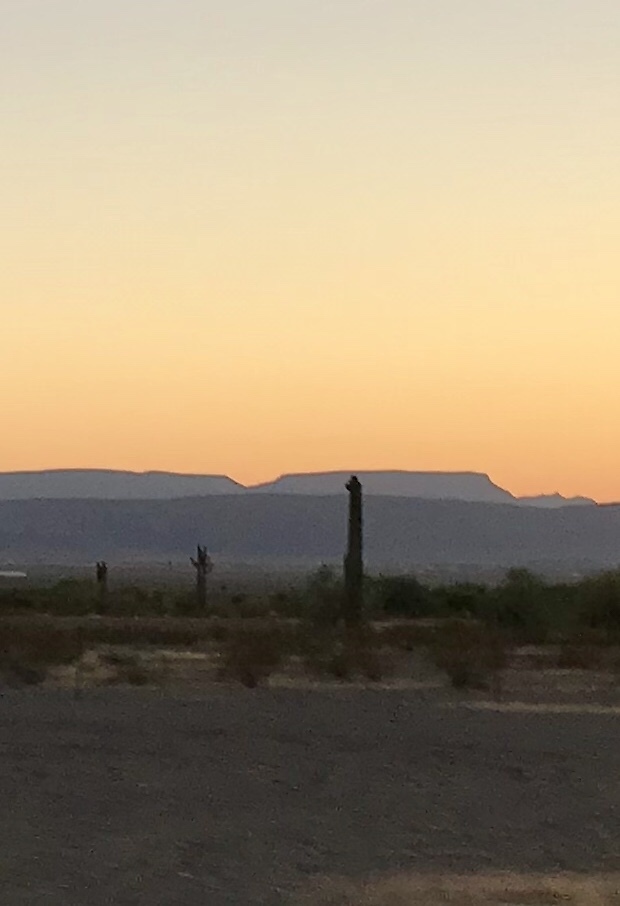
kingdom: Plantae
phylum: Tracheophyta
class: Magnoliopsida
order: Caryophyllales
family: Cactaceae
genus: Carnegiea
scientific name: Carnegiea gigantea
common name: Saguaro
